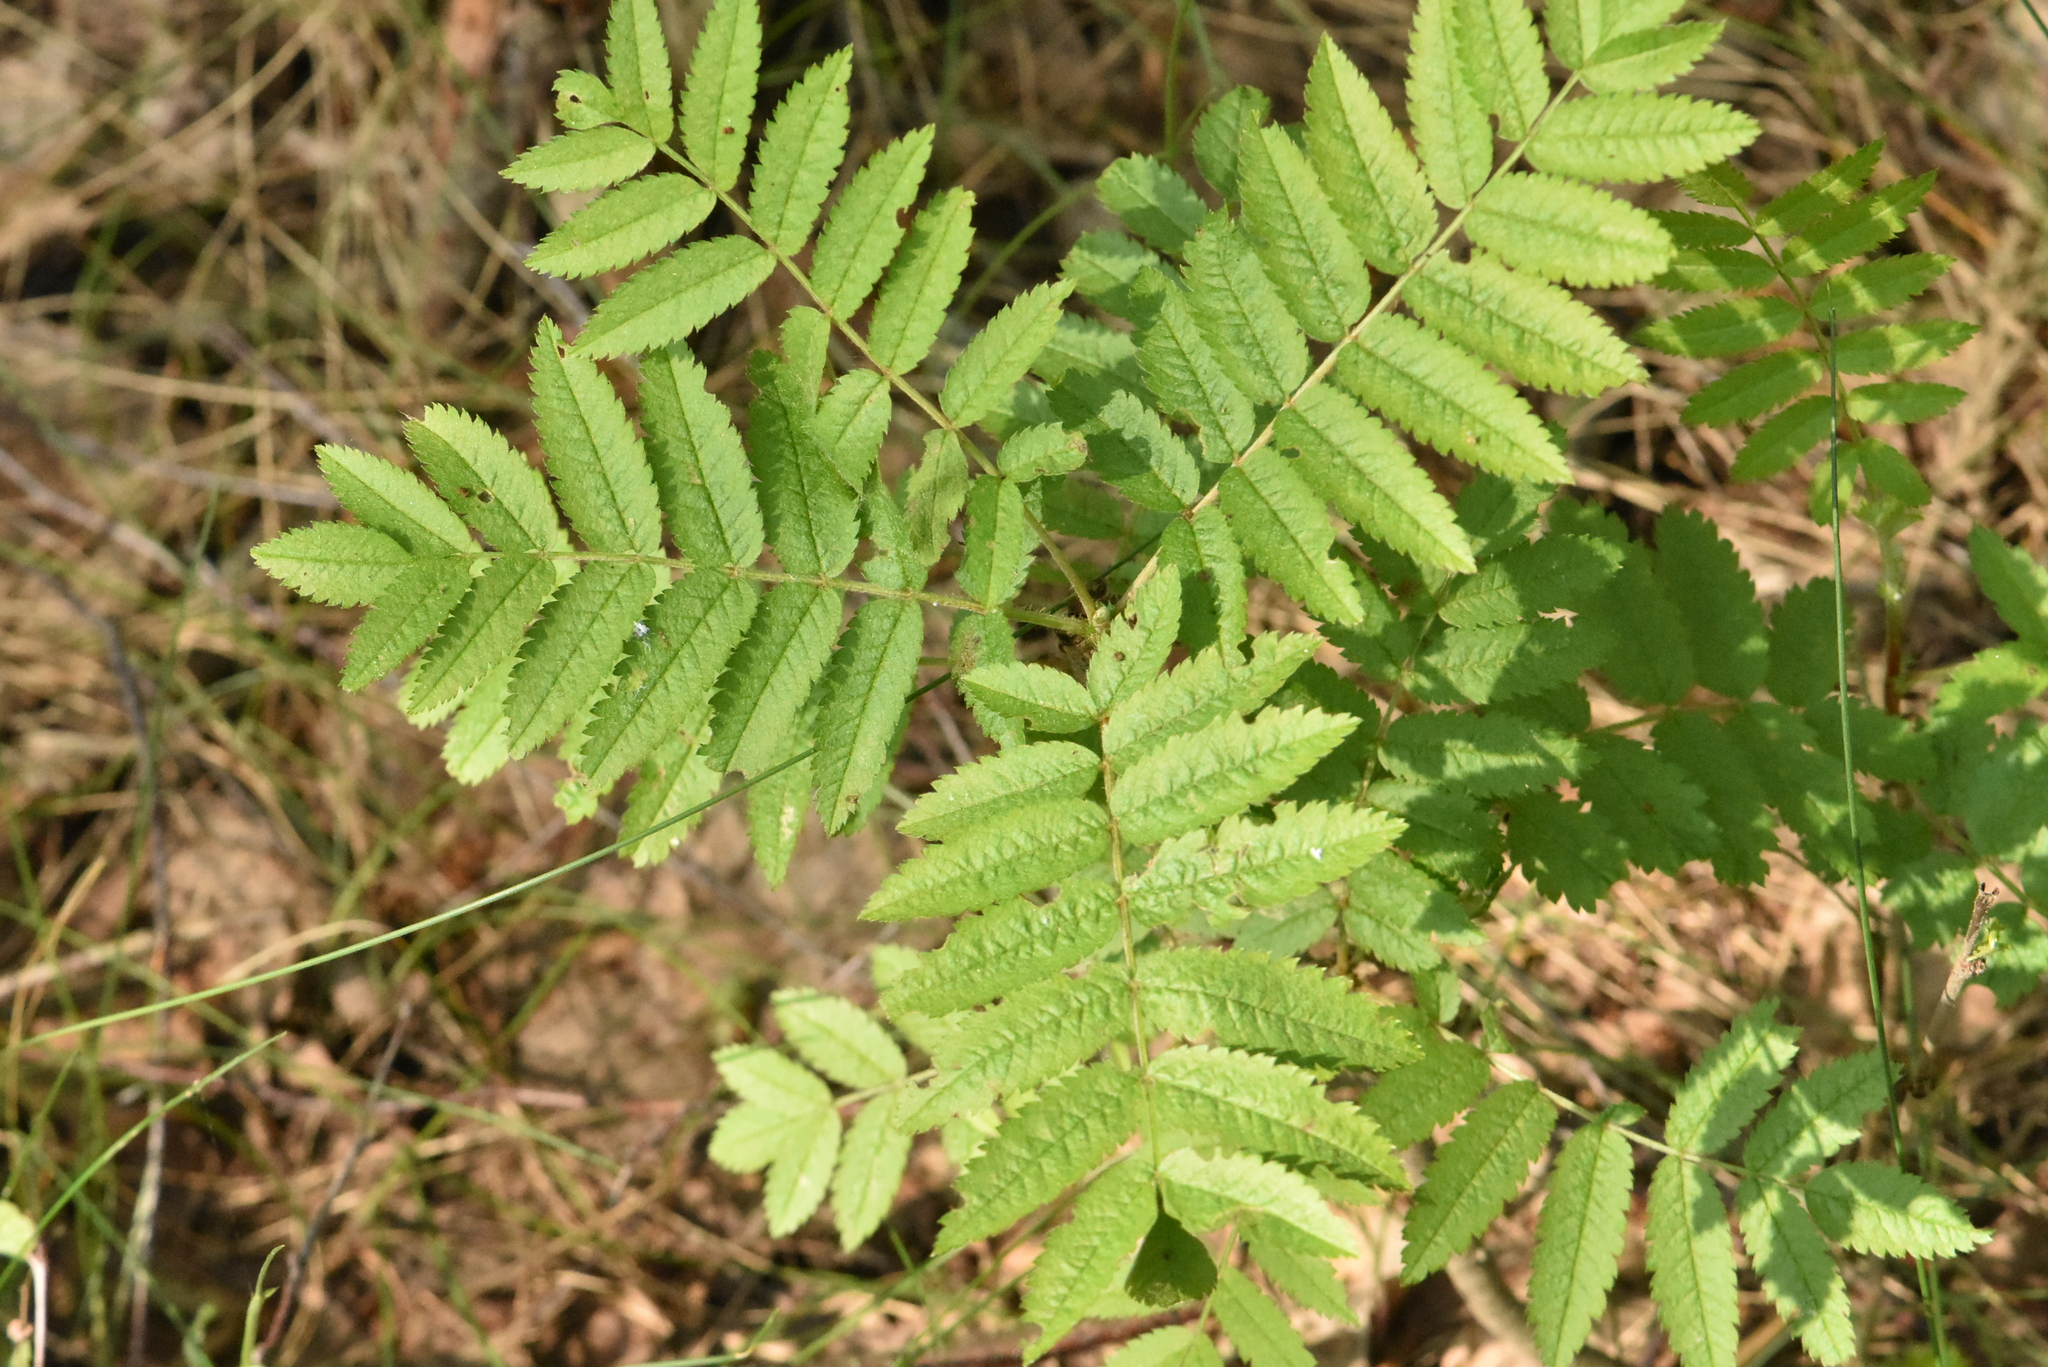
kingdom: Plantae
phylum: Tracheophyta
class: Magnoliopsida
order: Rosales
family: Rosaceae
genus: Sorbus
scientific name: Sorbus aucuparia
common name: Rowan
